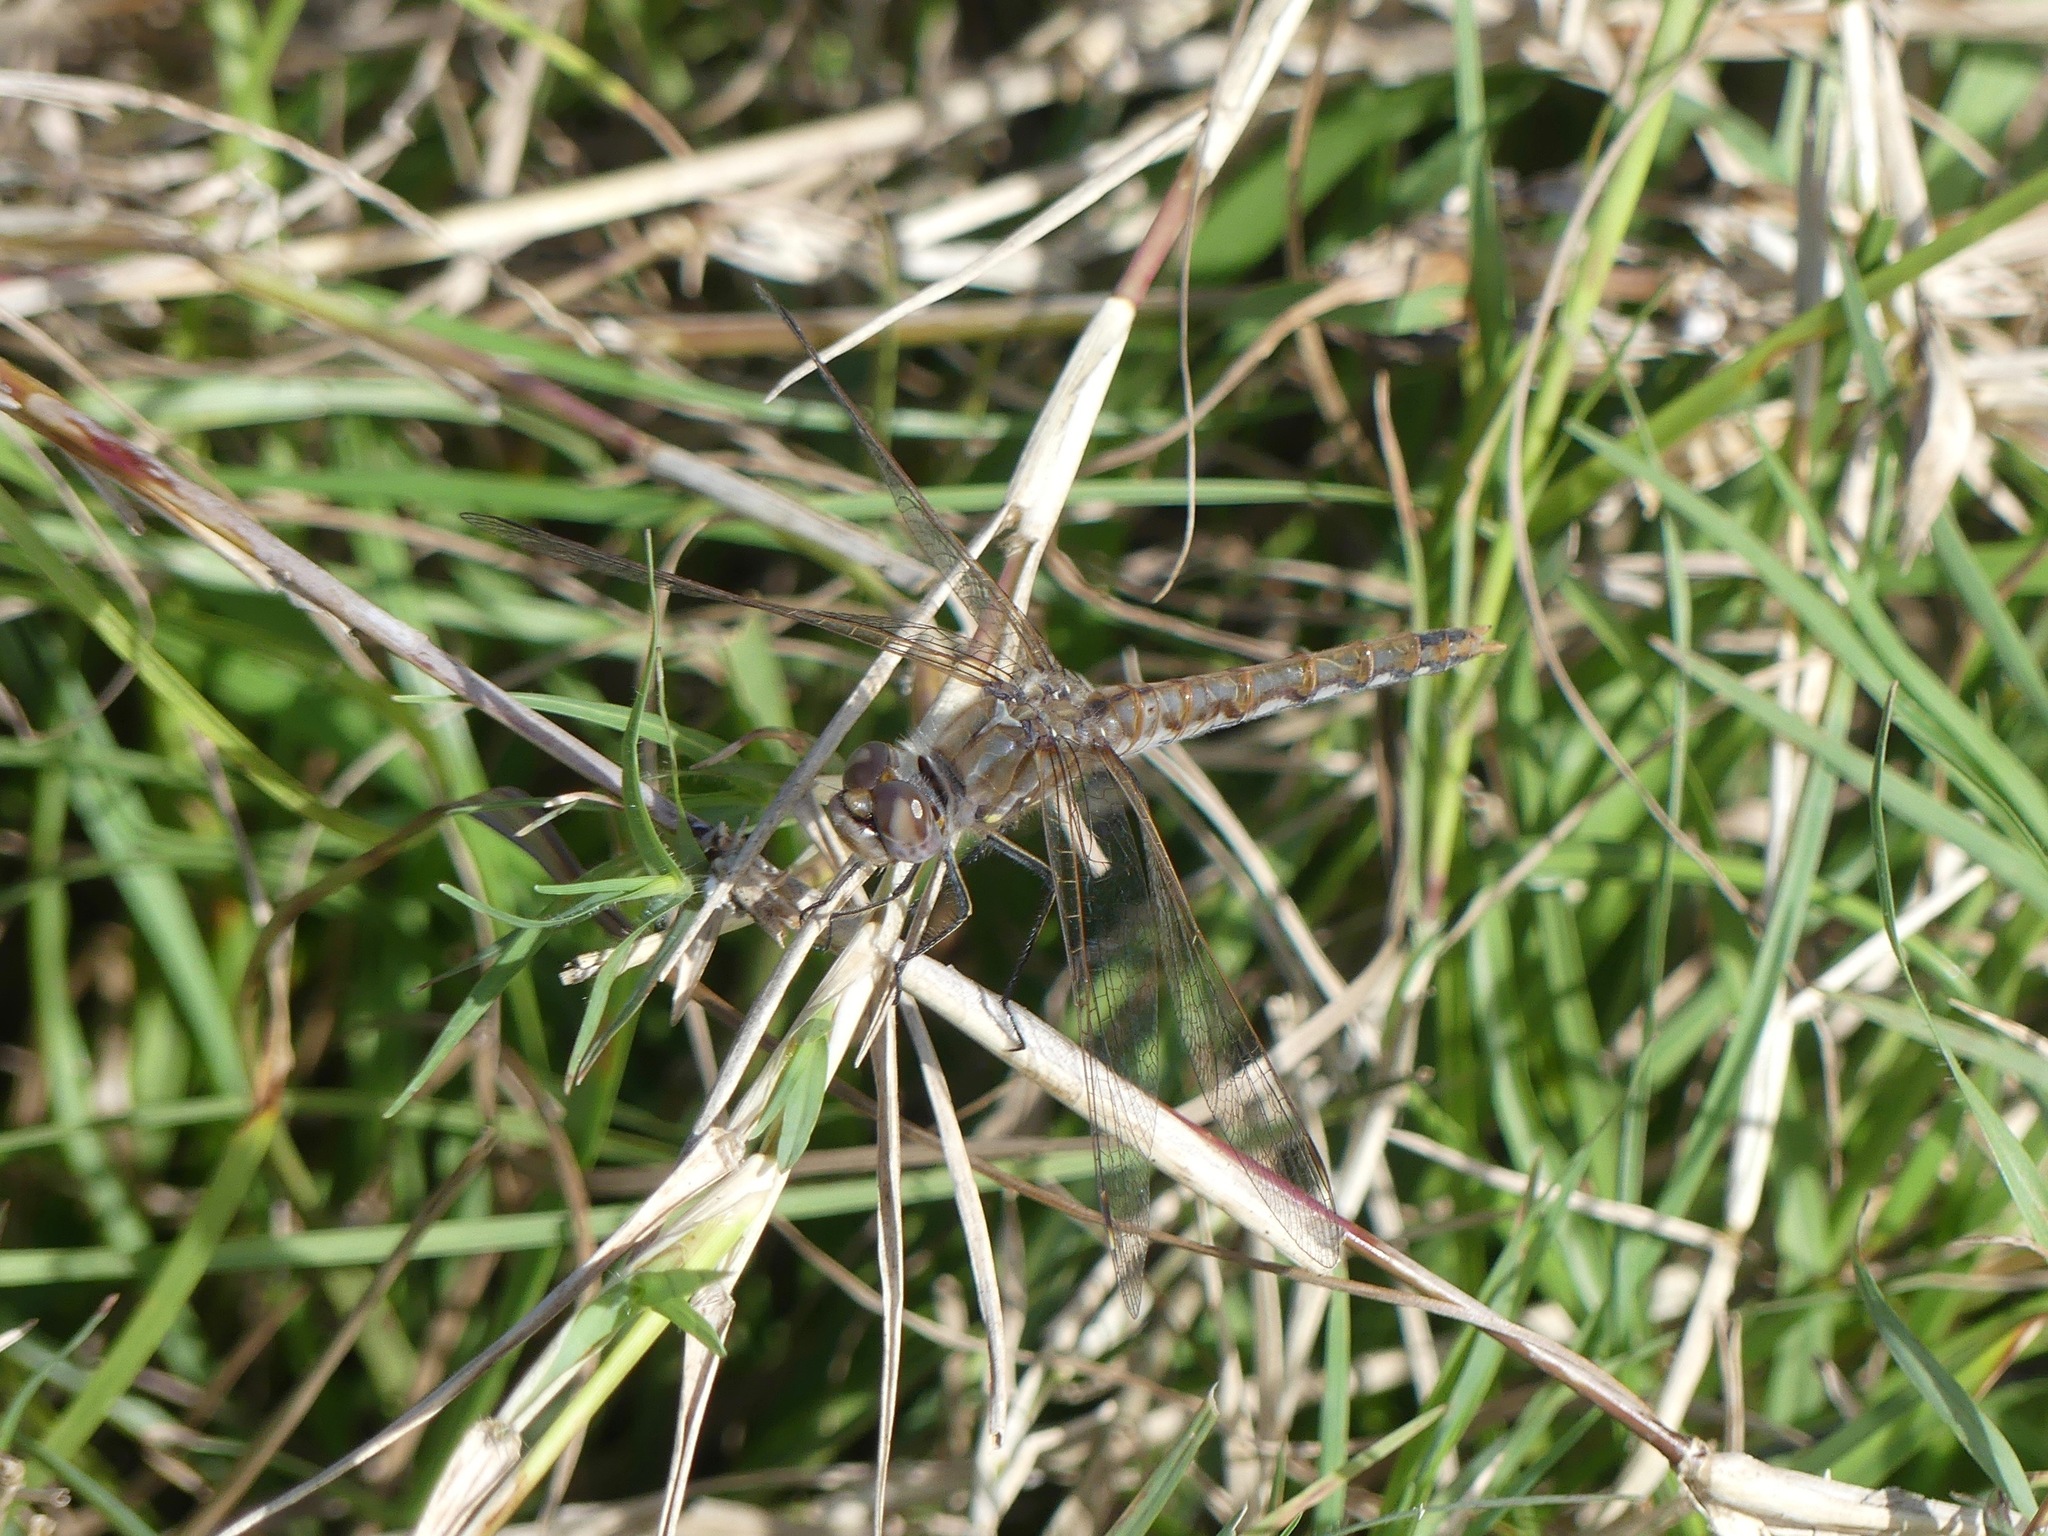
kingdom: Animalia
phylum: Arthropoda
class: Insecta
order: Odonata
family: Libellulidae
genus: Sympetrum
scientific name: Sympetrum corruptum
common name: Variegated meadowhawk
